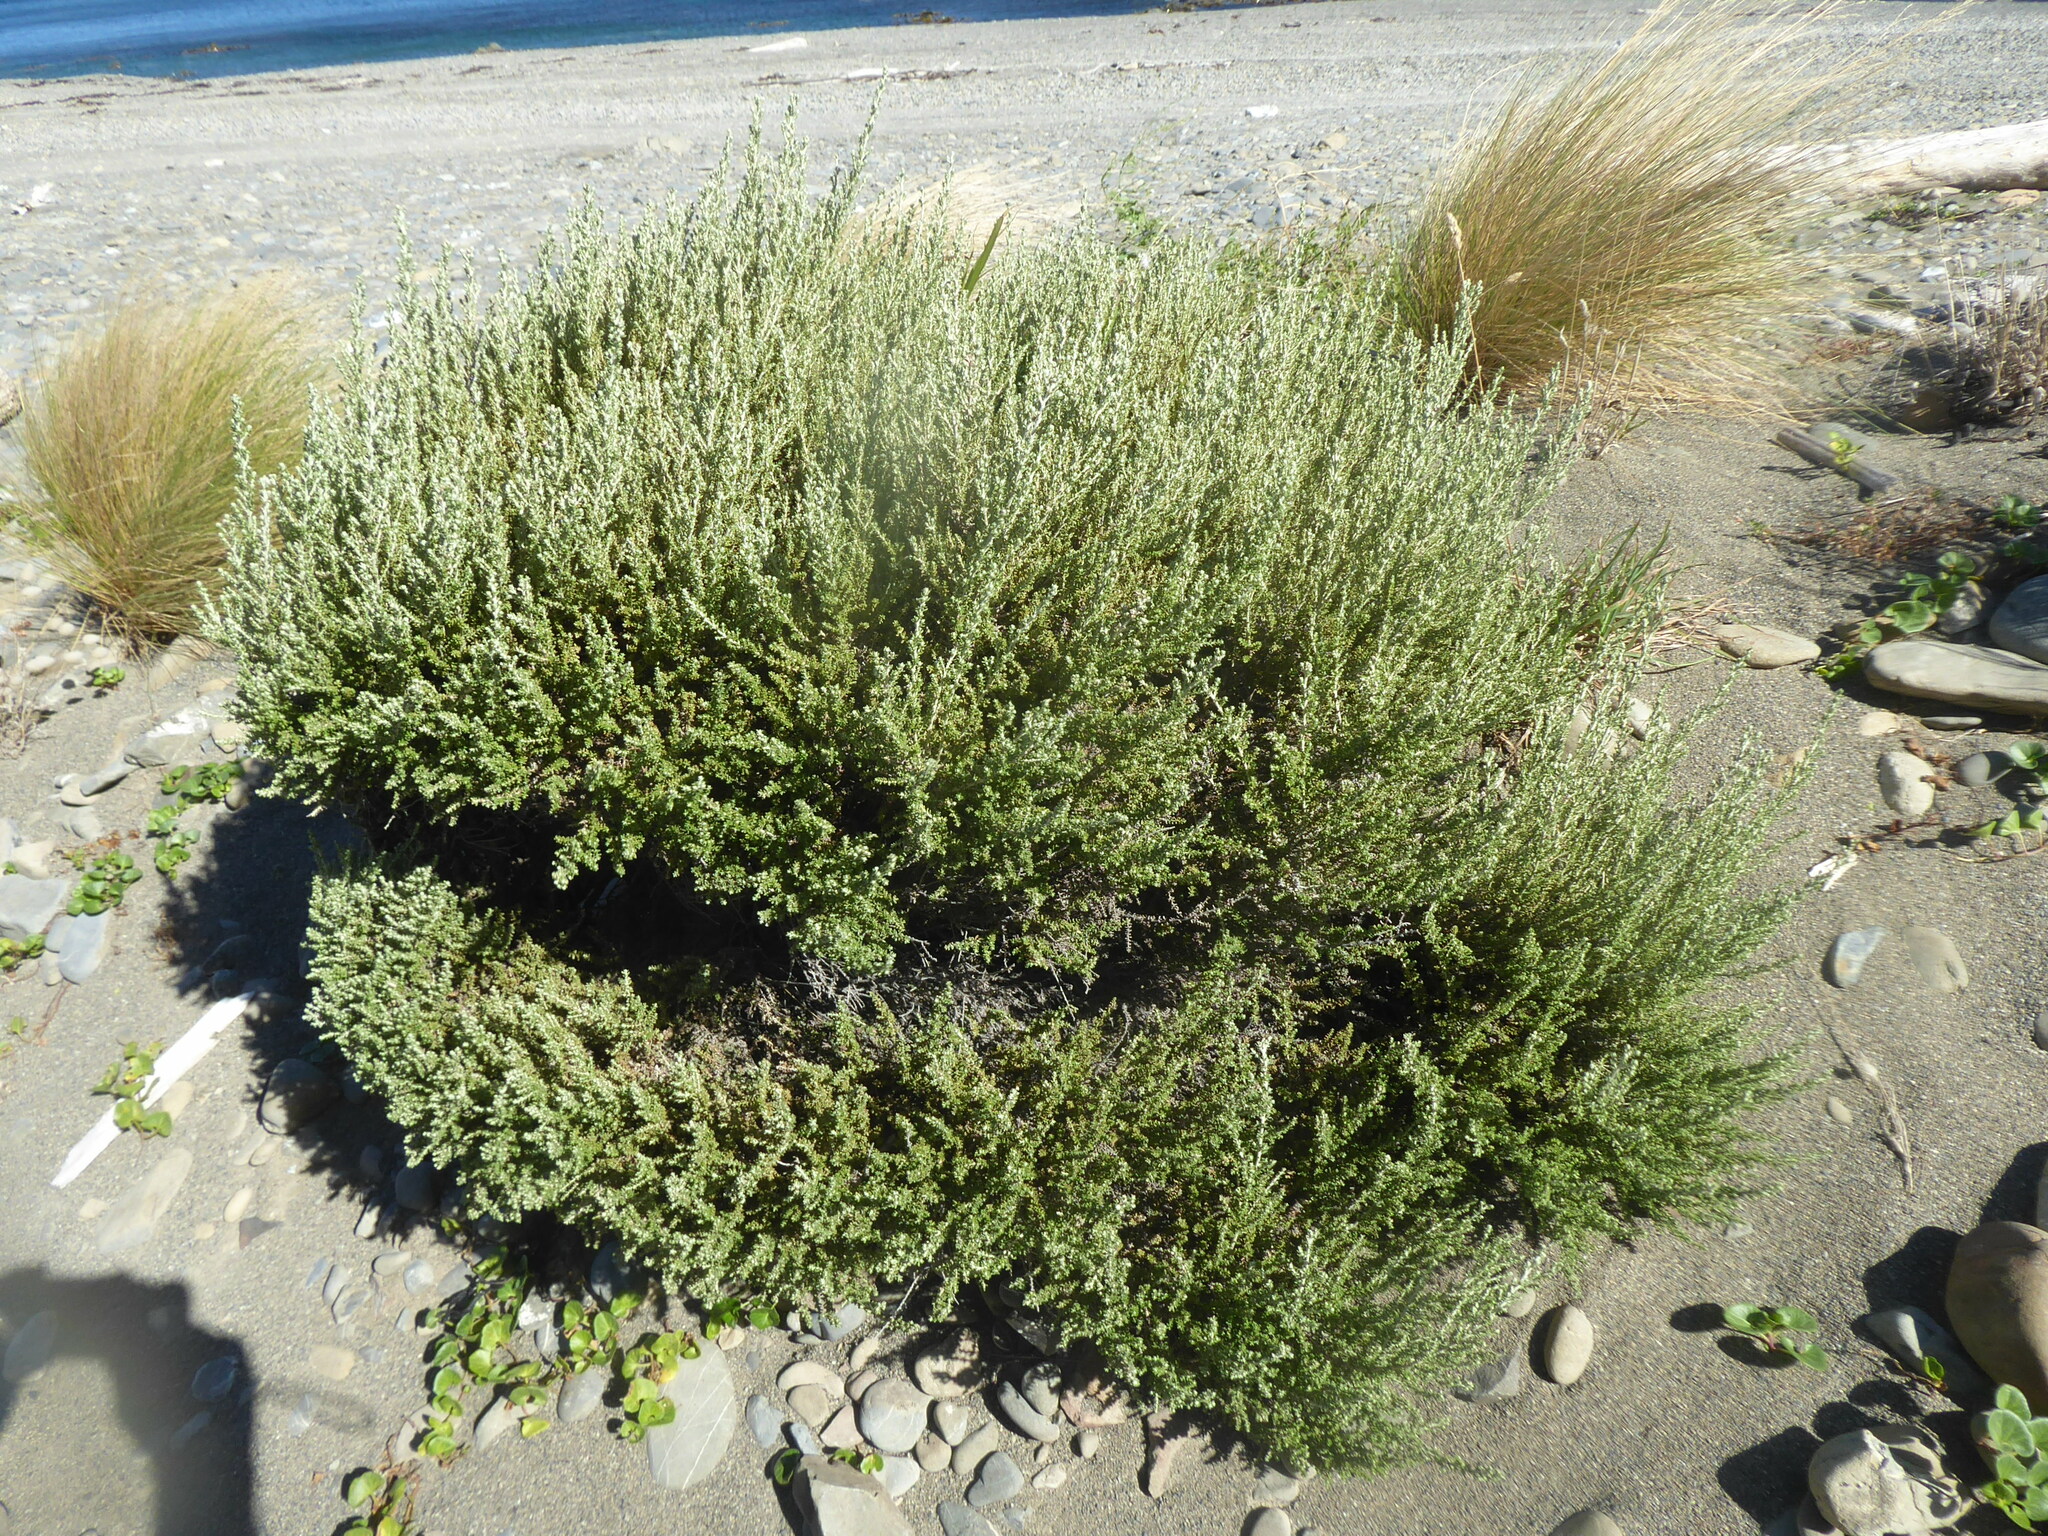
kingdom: Plantae
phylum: Tracheophyta
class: Magnoliopsida
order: Asterales
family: Asteraceae
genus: Ozothamnus
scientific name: Ozothamnus leptophyllus
